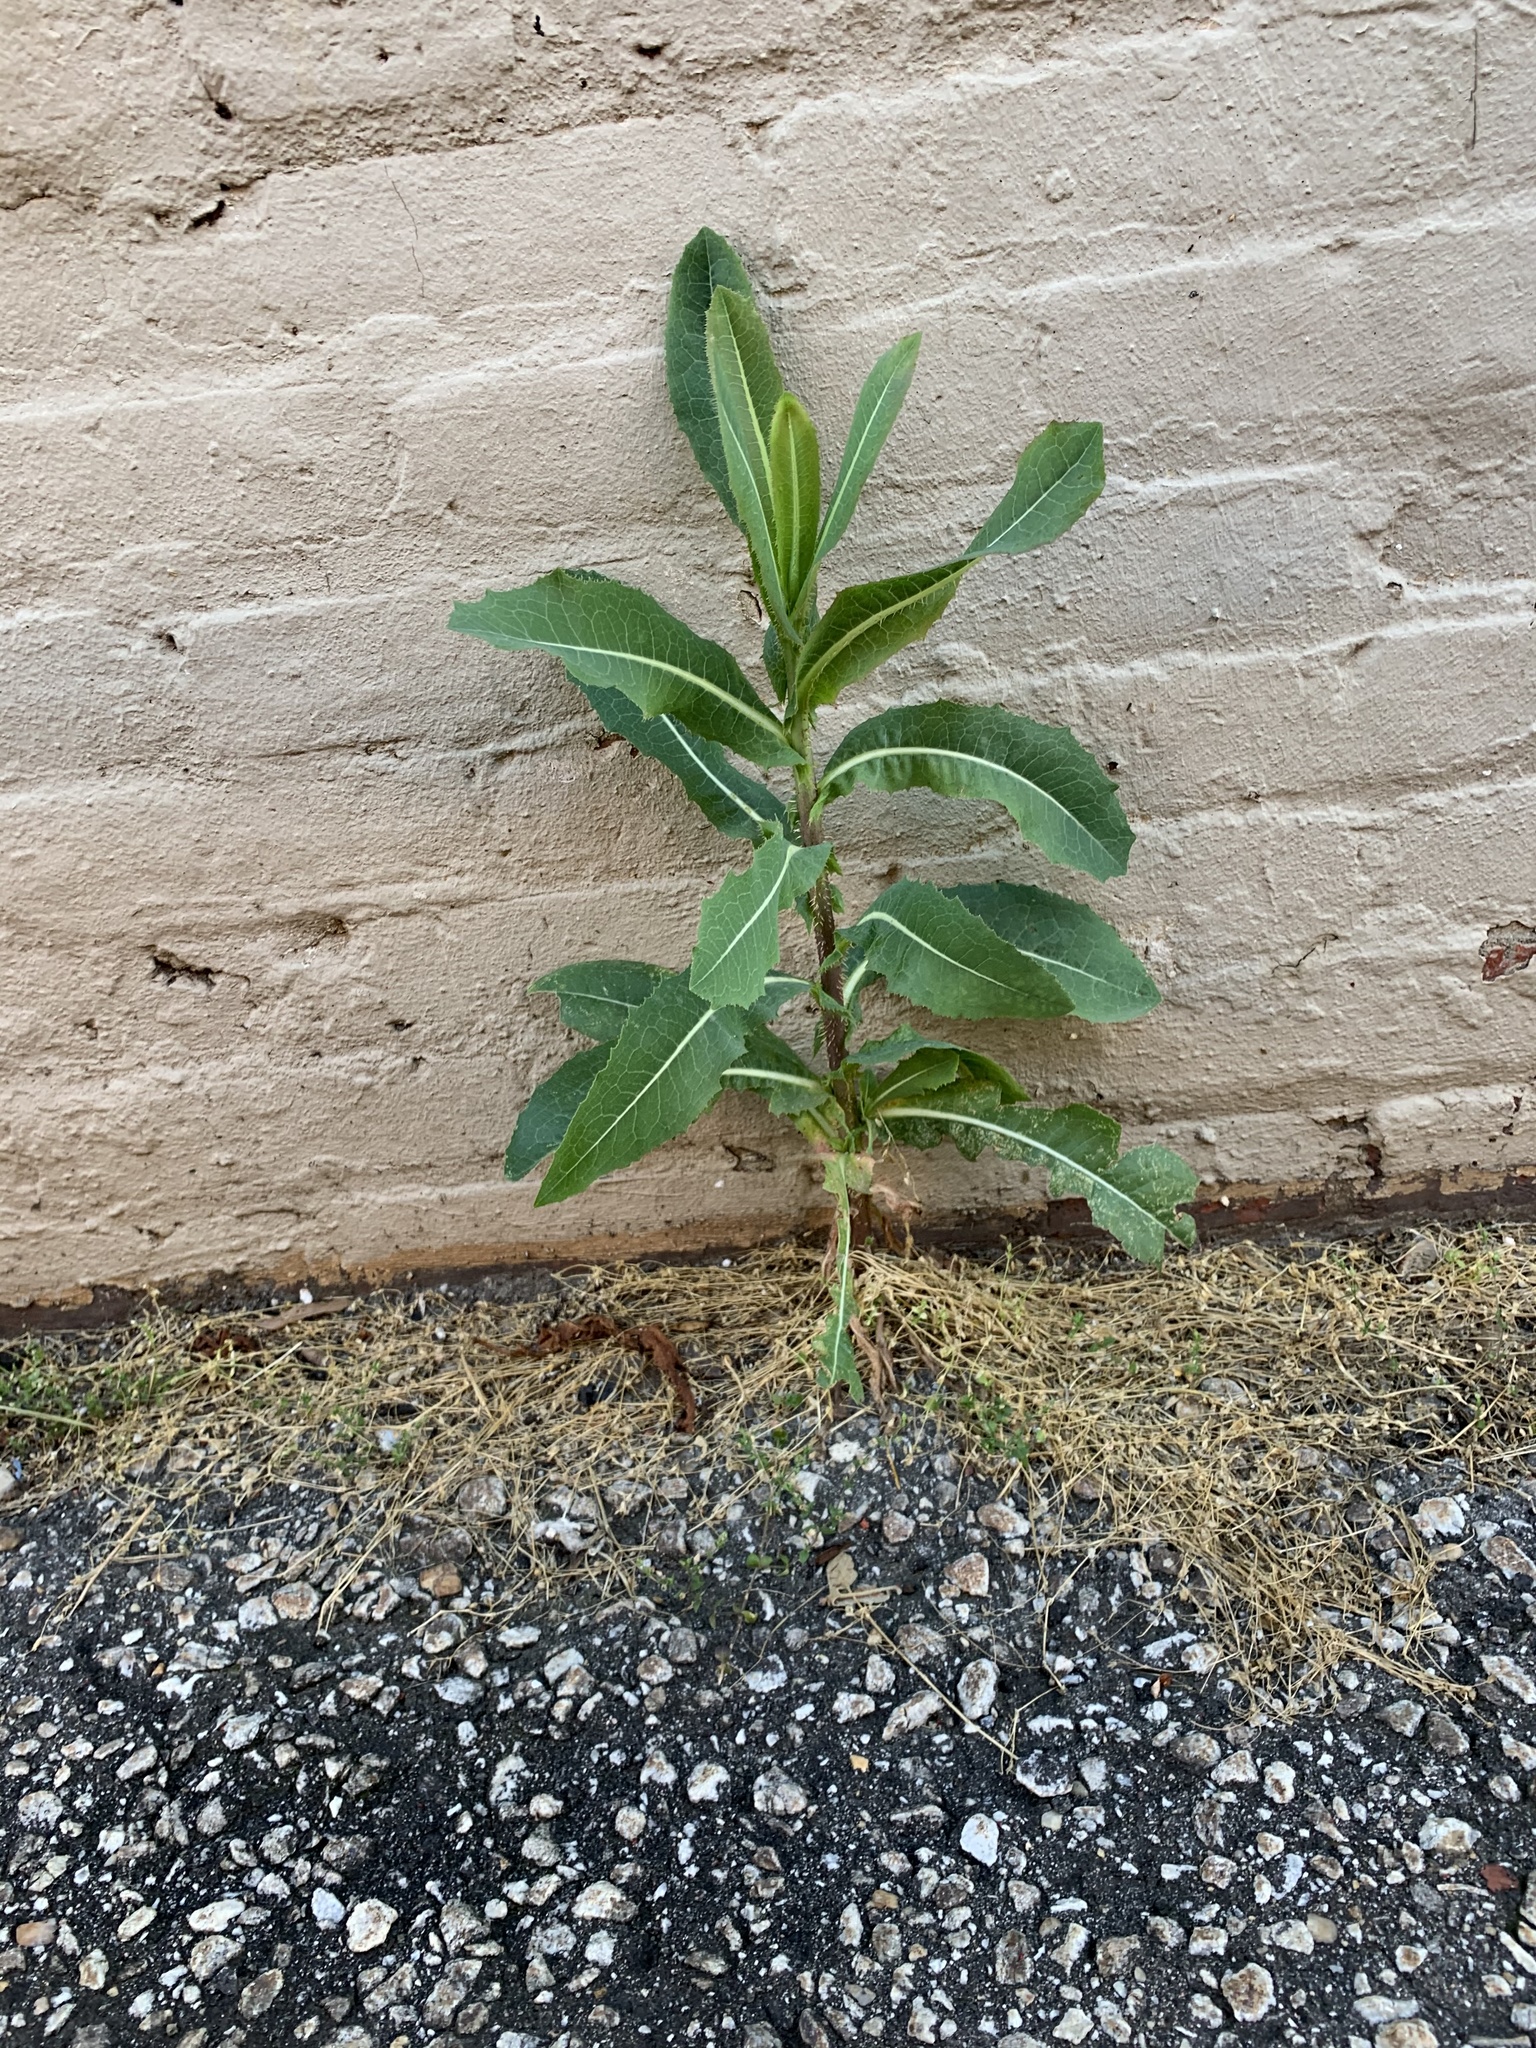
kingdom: Plantae
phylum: Tracheophyta
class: Magnoliopsida
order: Asterales
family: Asteraceae
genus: Lactuca
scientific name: Lactuca serriola
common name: Prickly lettuce
